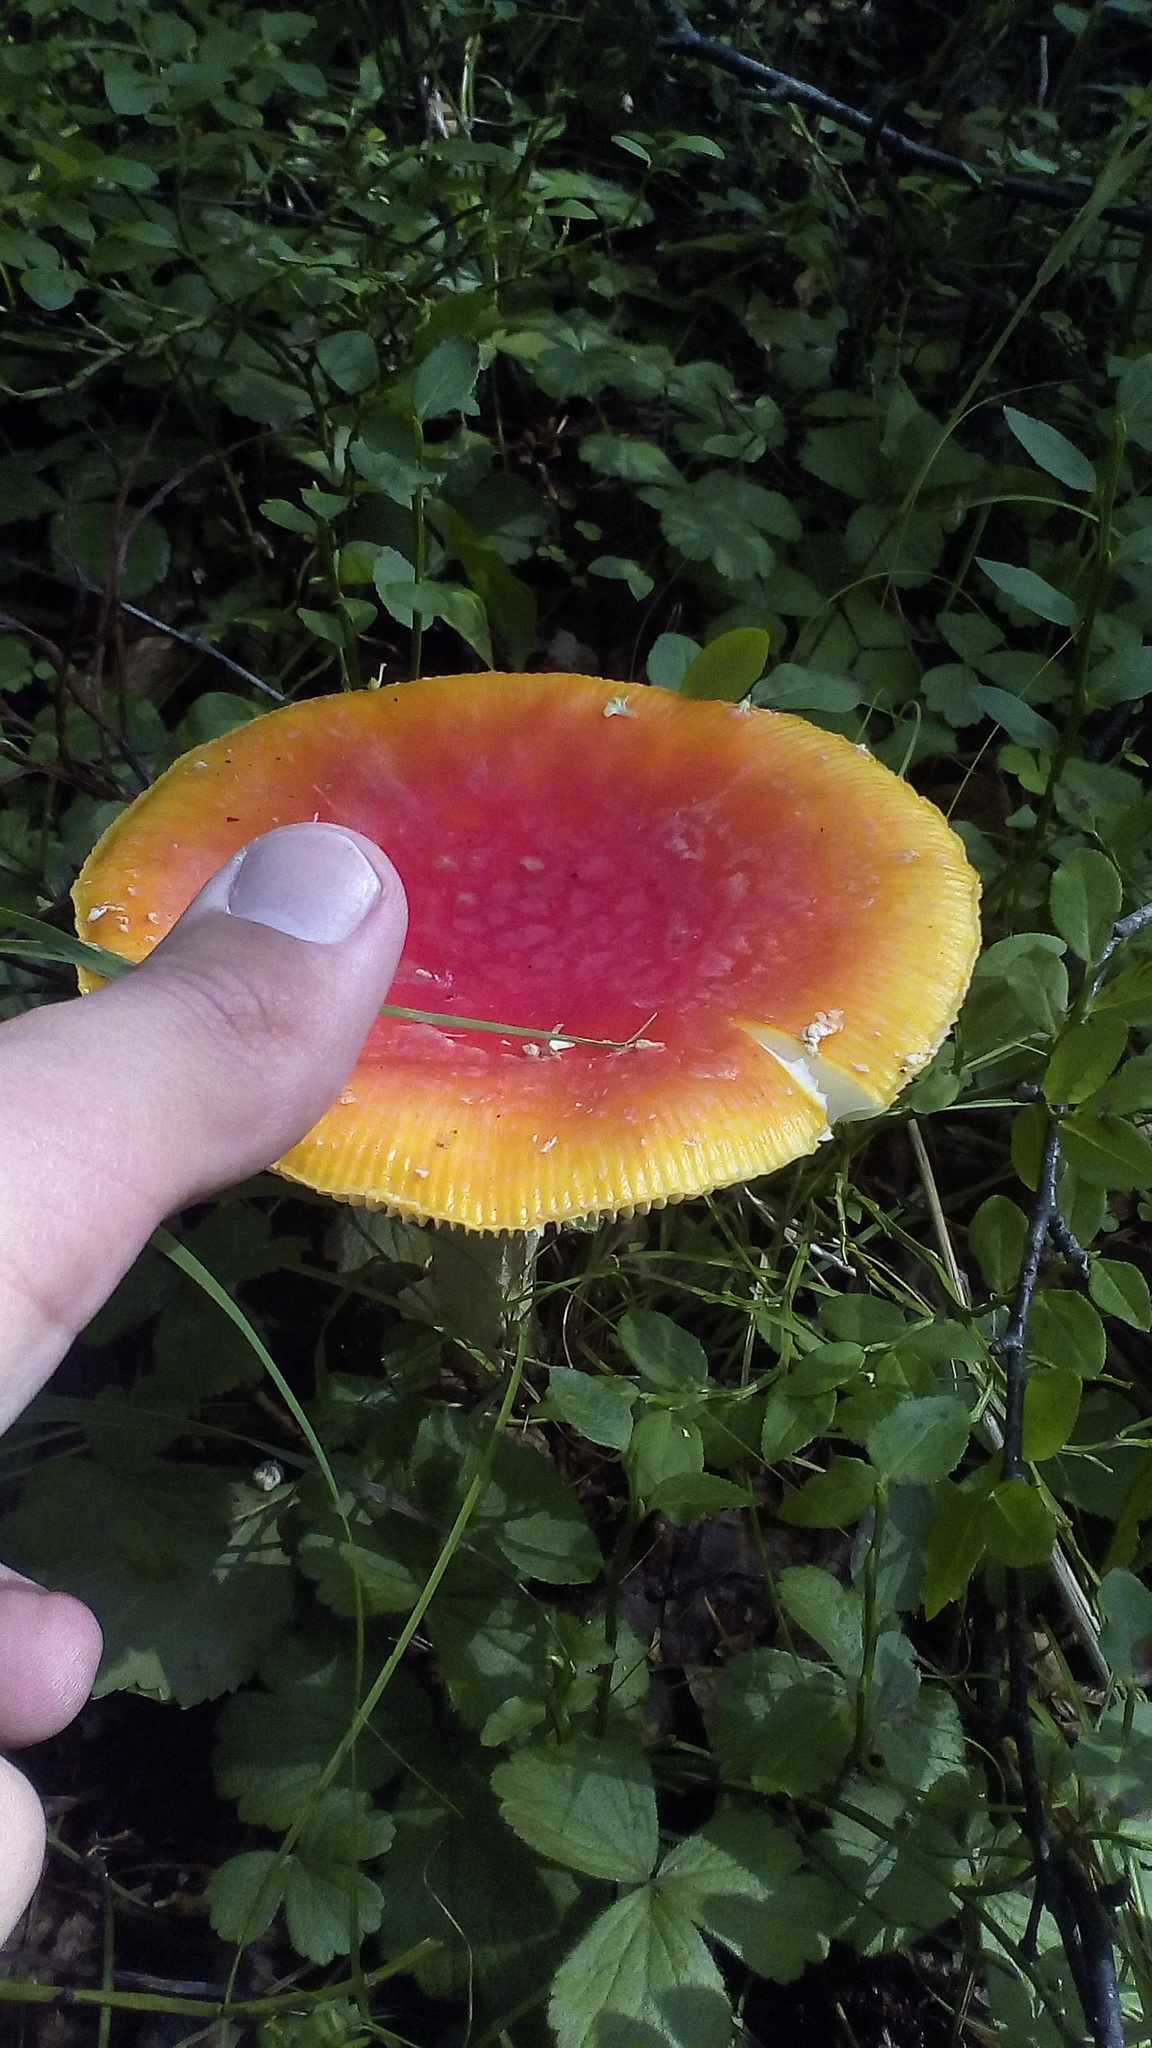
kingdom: Fungi
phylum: Basidiomycota
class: Agaricomycetes
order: Agaricales
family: Amanitaceae
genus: Amanita
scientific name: Amanita muscaria
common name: Fly agaric
